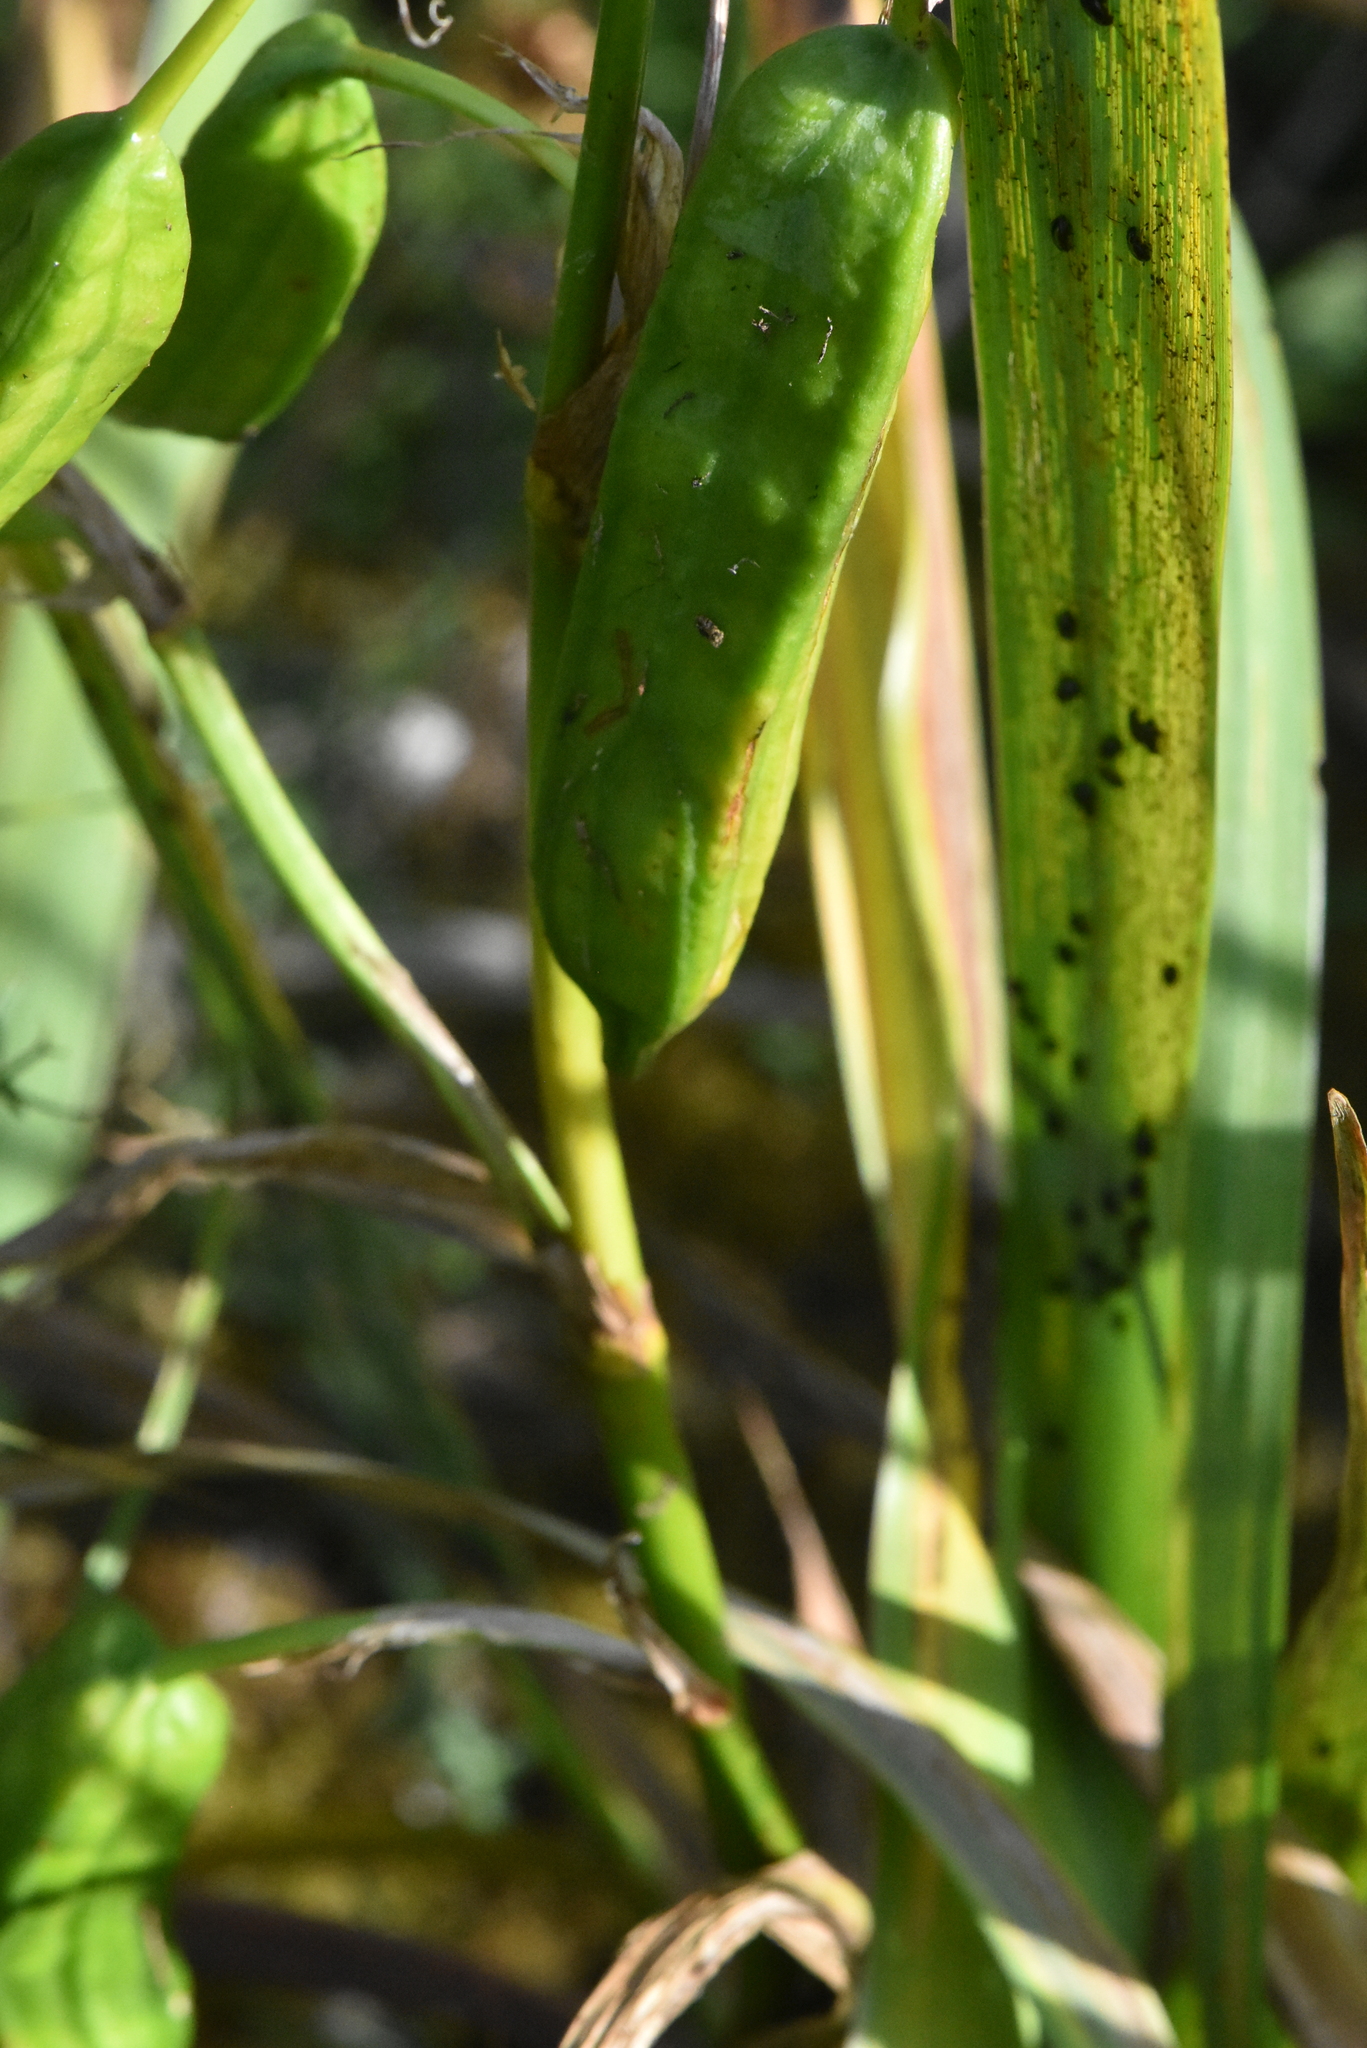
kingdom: Plantae
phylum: Tracheophyta
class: Liliopsida
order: Asparagales
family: Iridaceae
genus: Iris
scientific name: Iris pseudacorus
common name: Yellow flag
